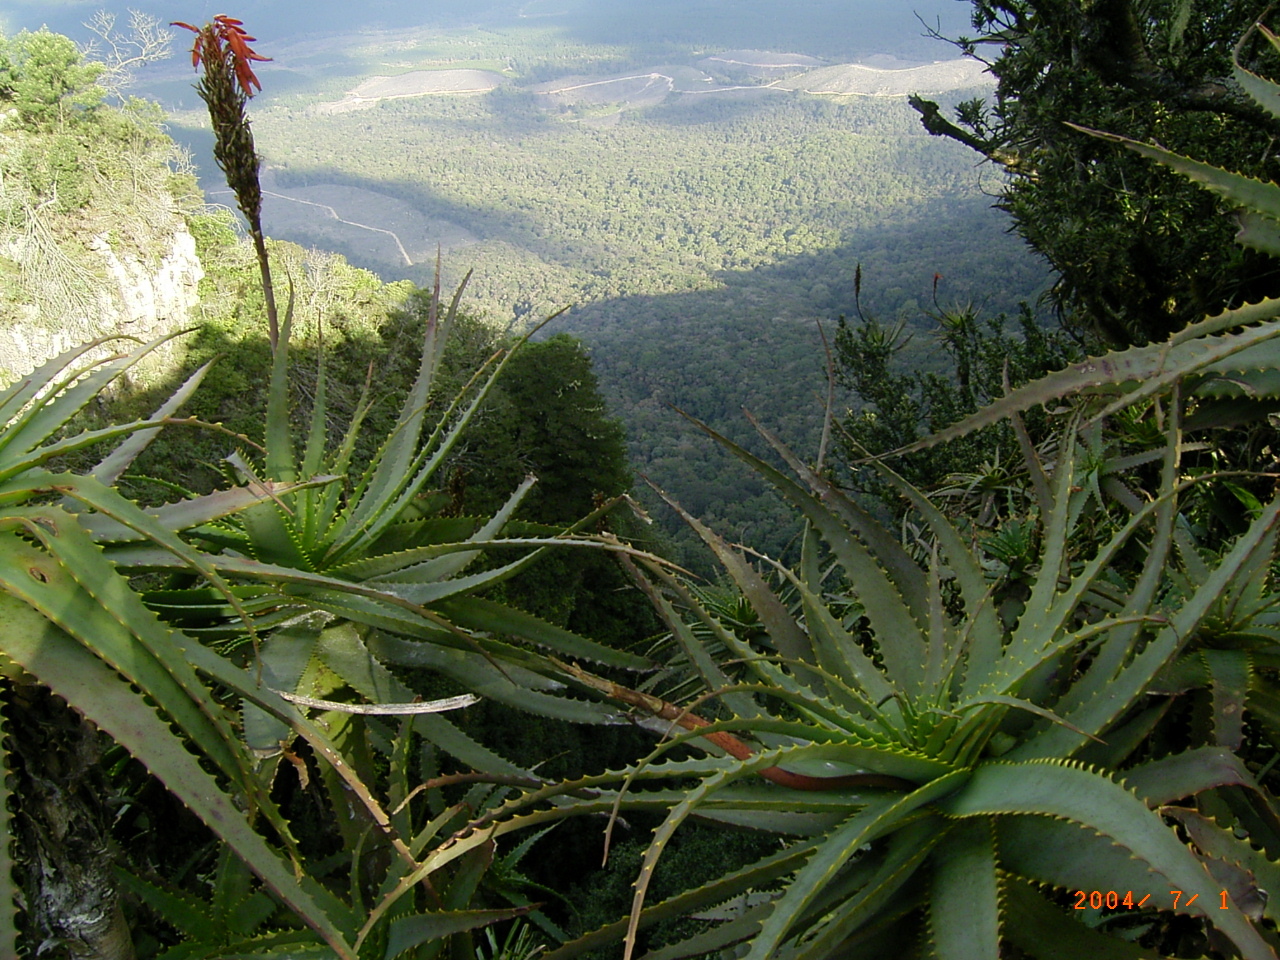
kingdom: Plantae
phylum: Tracheophyta
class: Liliopsida
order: Asparagales
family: Asphodelaceae
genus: Aloe
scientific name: Aloe arborescens
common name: Candelabra aloe
